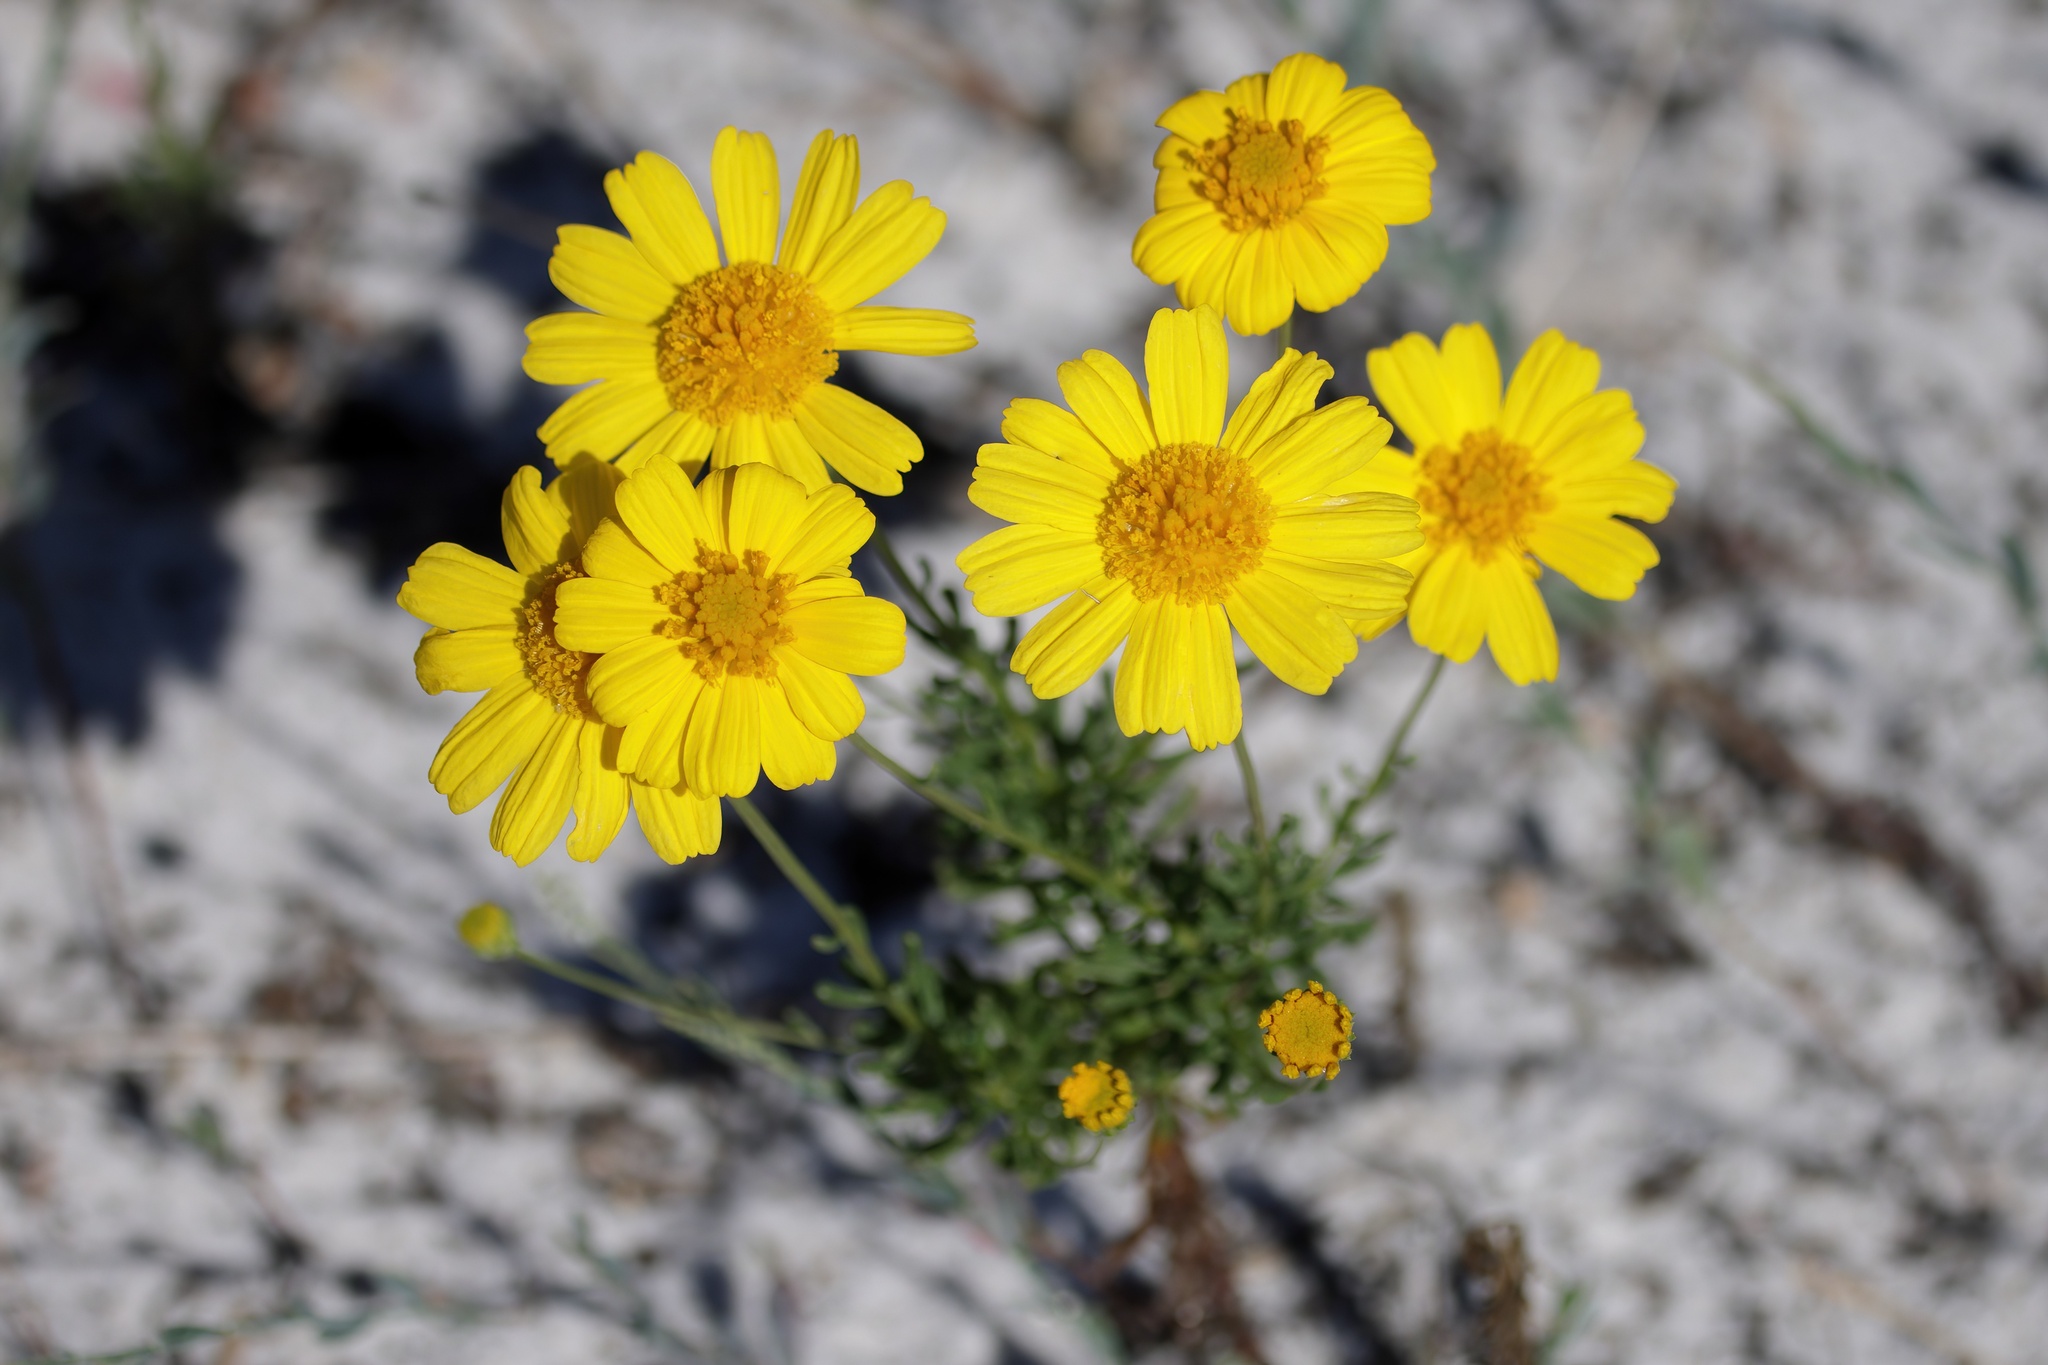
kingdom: Plantae
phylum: Tracheophyta
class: Magnoliopsida
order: Asterales
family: Asteraceae
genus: Balduina
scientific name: Balduina angustifolia
